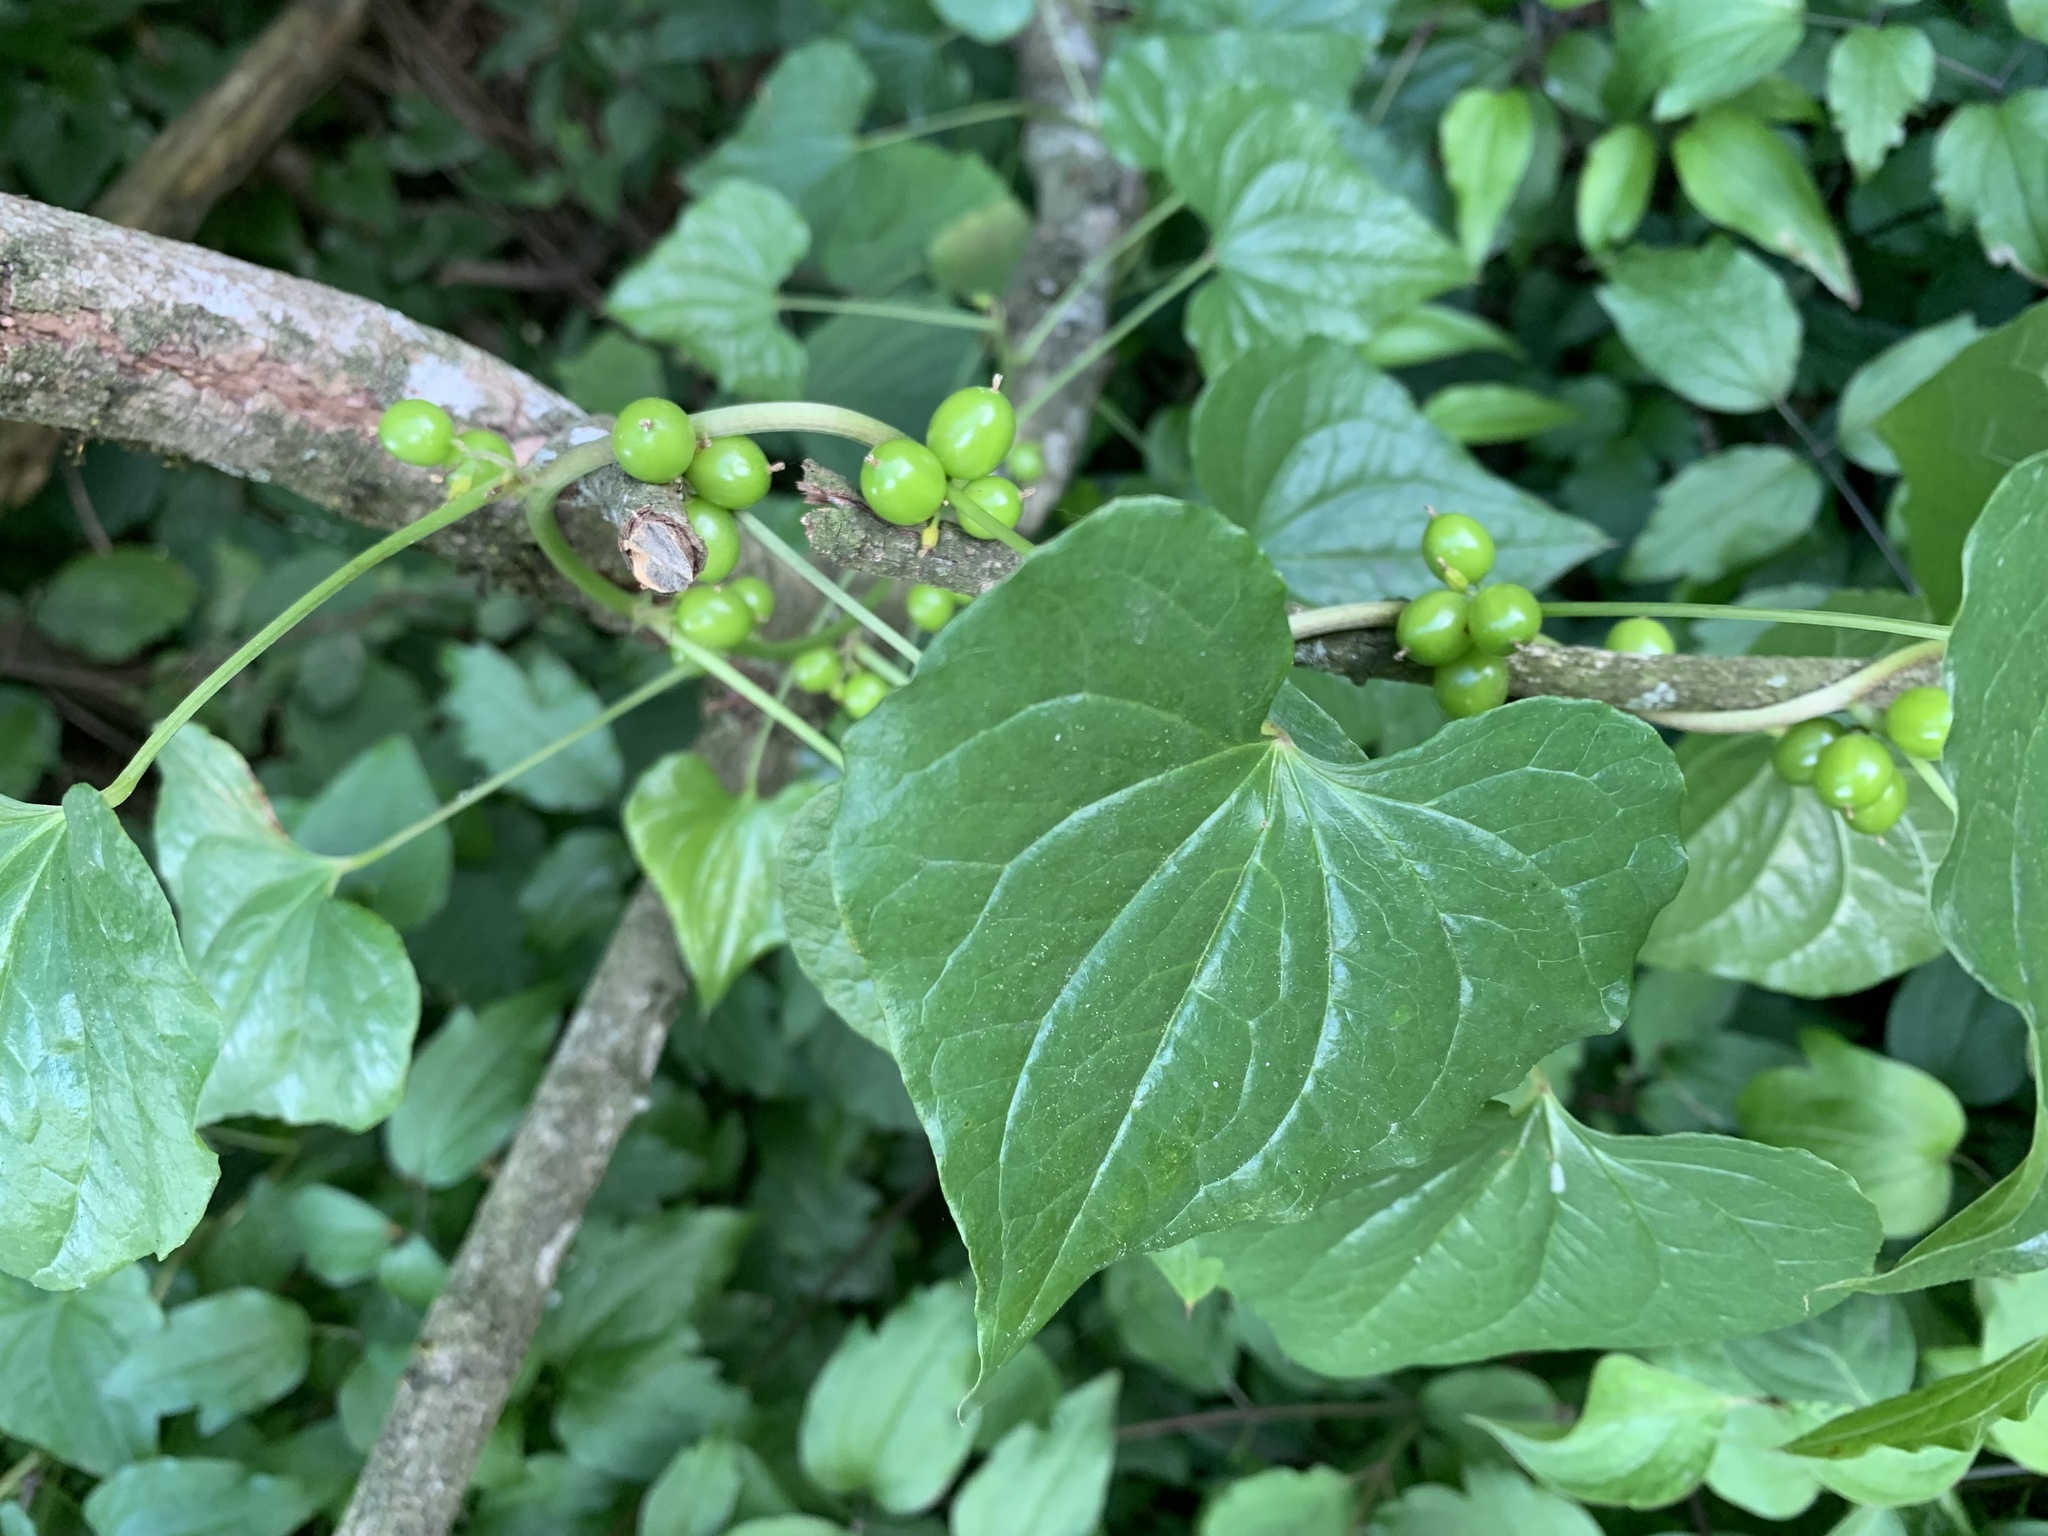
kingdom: Plantae
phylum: Tracheophyta
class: Liliopsida
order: Dioscoreales
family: Dioscoreaceae
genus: Dioscorea
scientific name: Dioscorea communis
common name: Black-bindweed
